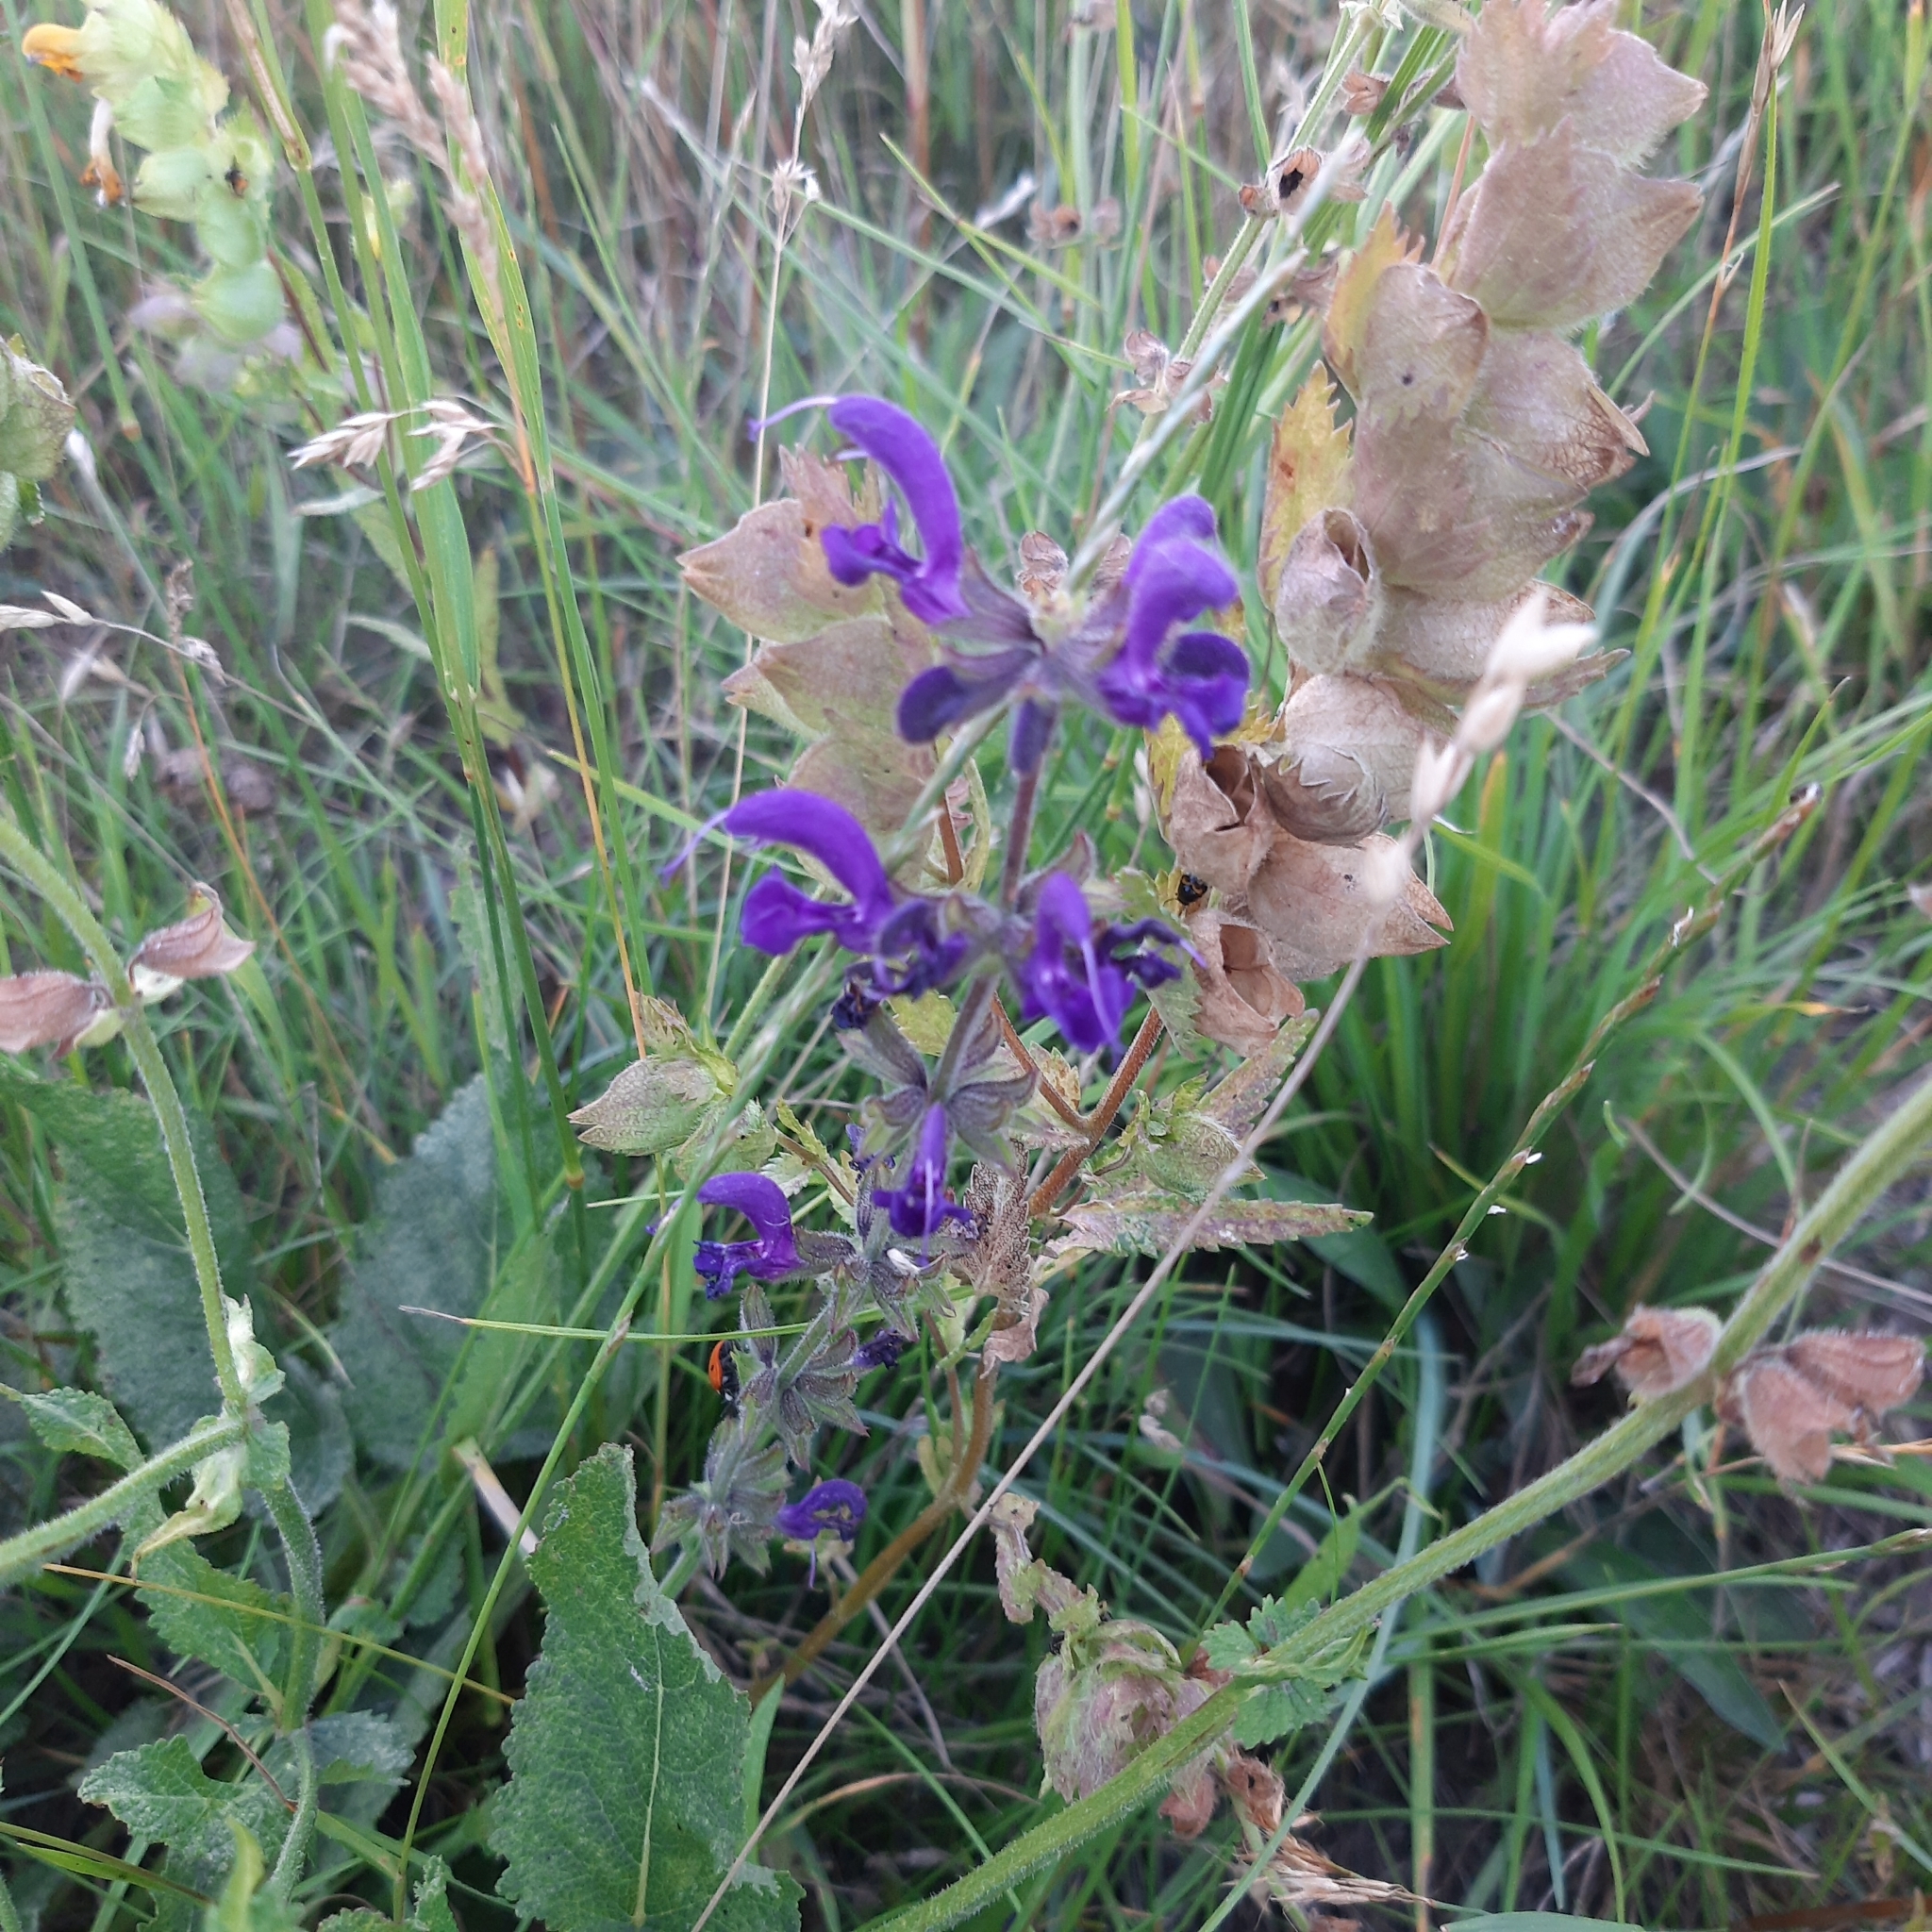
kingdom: Plantae
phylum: Tracheophyta
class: Magnoliopsida
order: Lamiales
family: Lamiaceae
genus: Salvia
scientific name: Salvia pratensis
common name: Meadow sage
